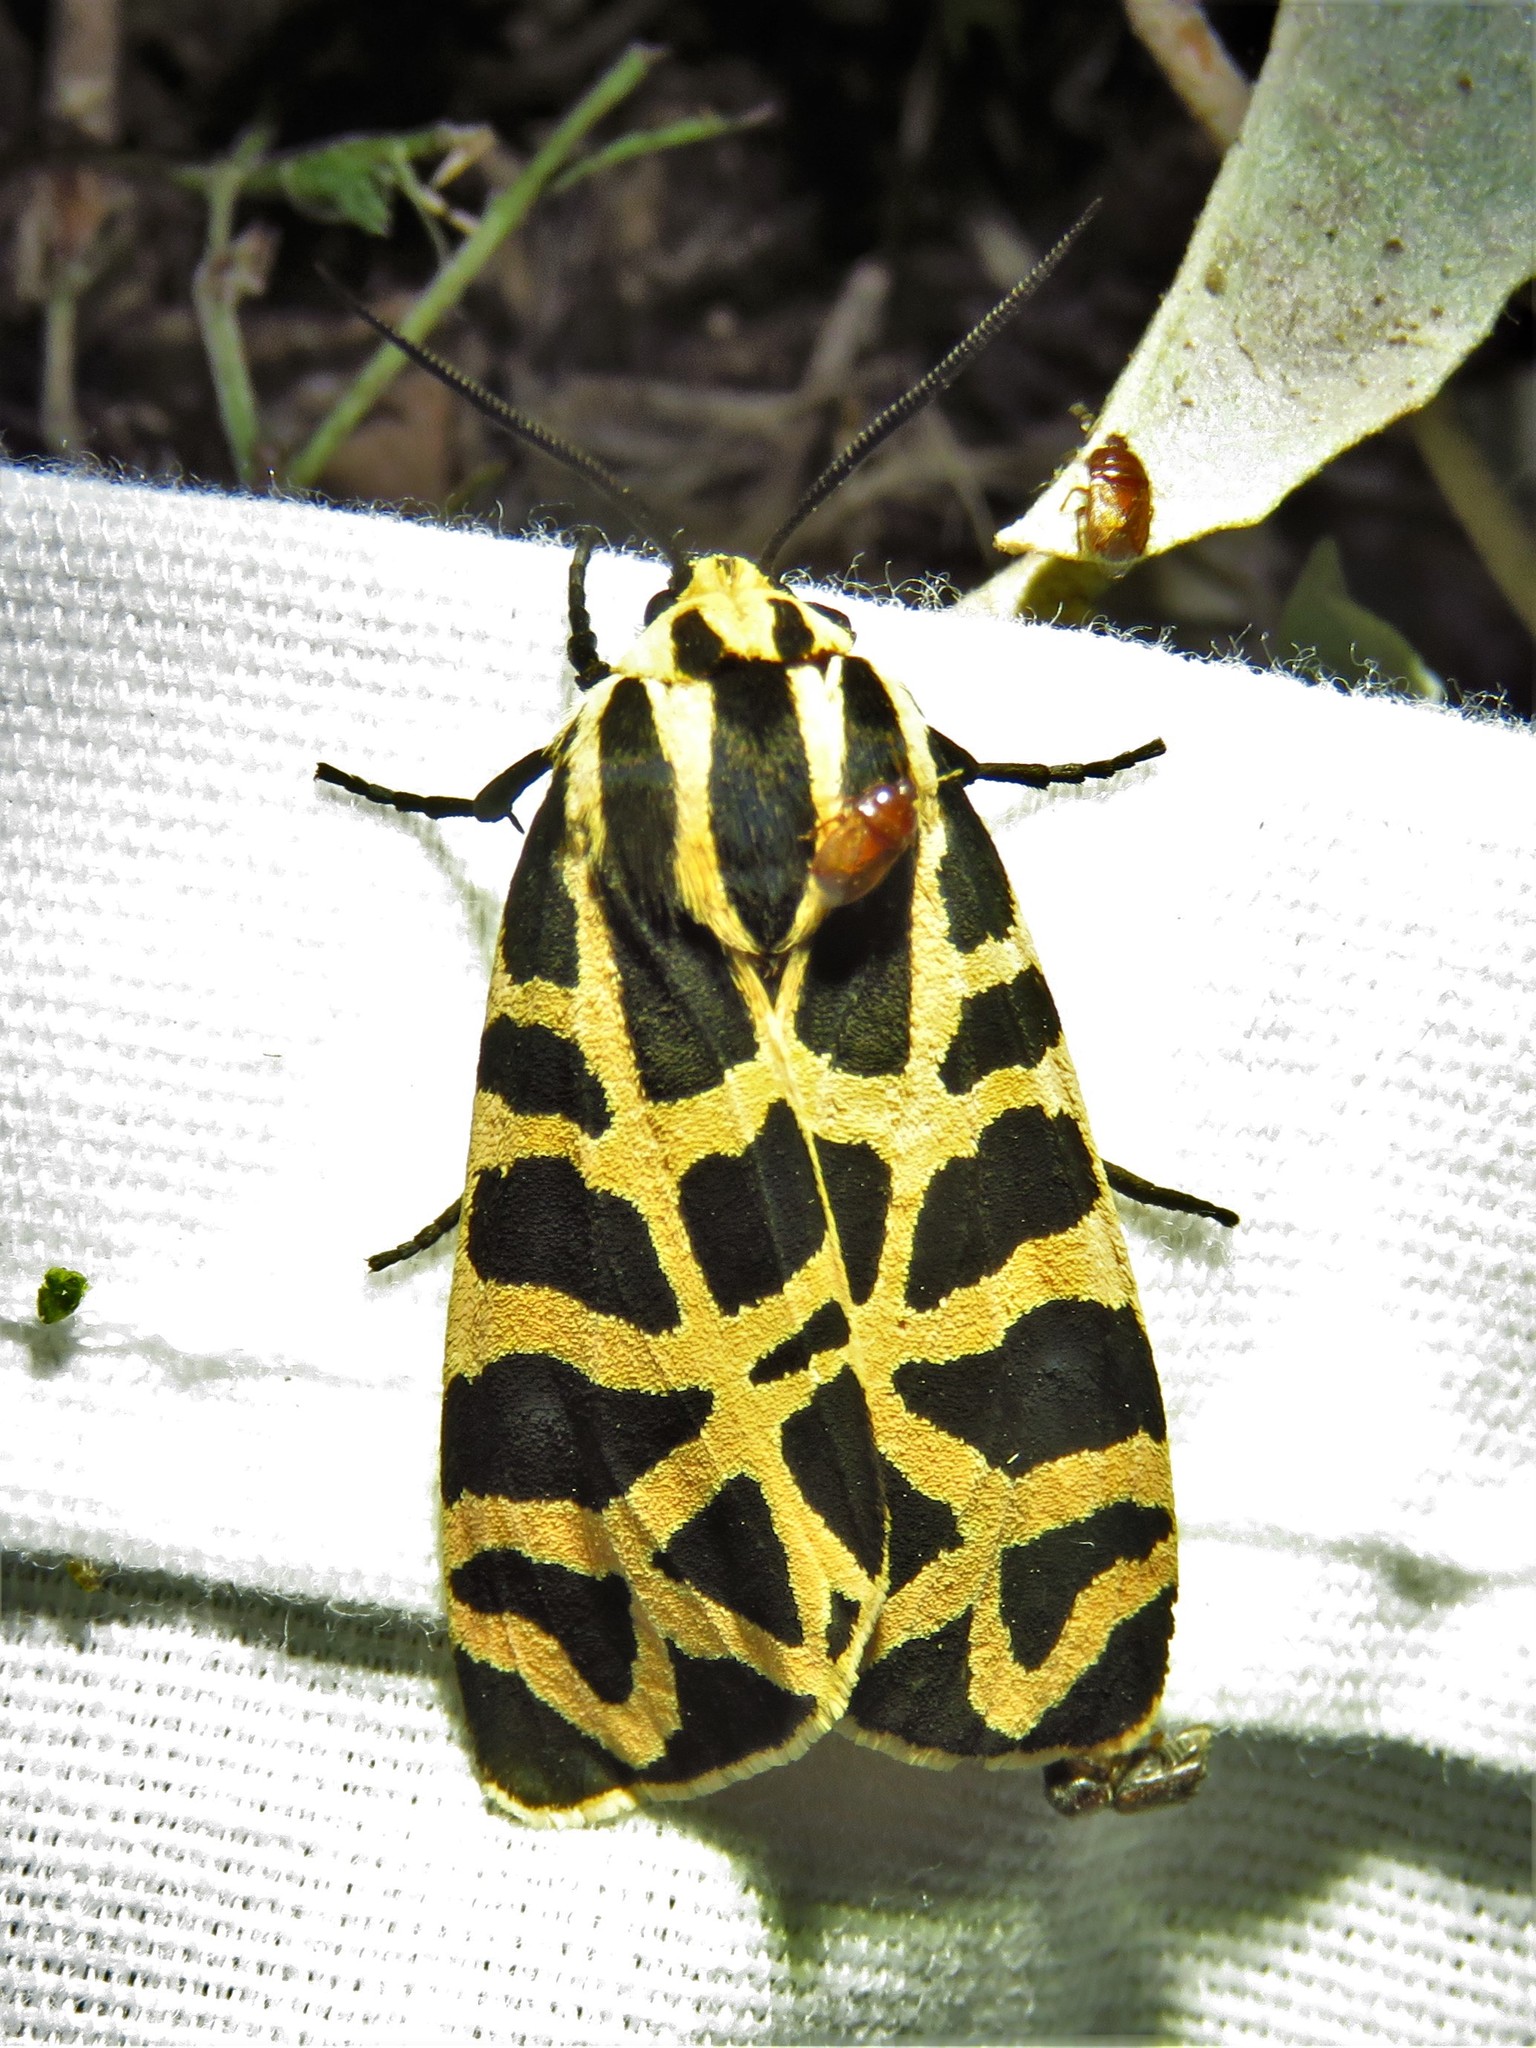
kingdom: Animalia
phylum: Arthropoda
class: Insecta
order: Lepidoptera
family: Erebidae
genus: Apantesis
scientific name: Apantesis incorrupta
